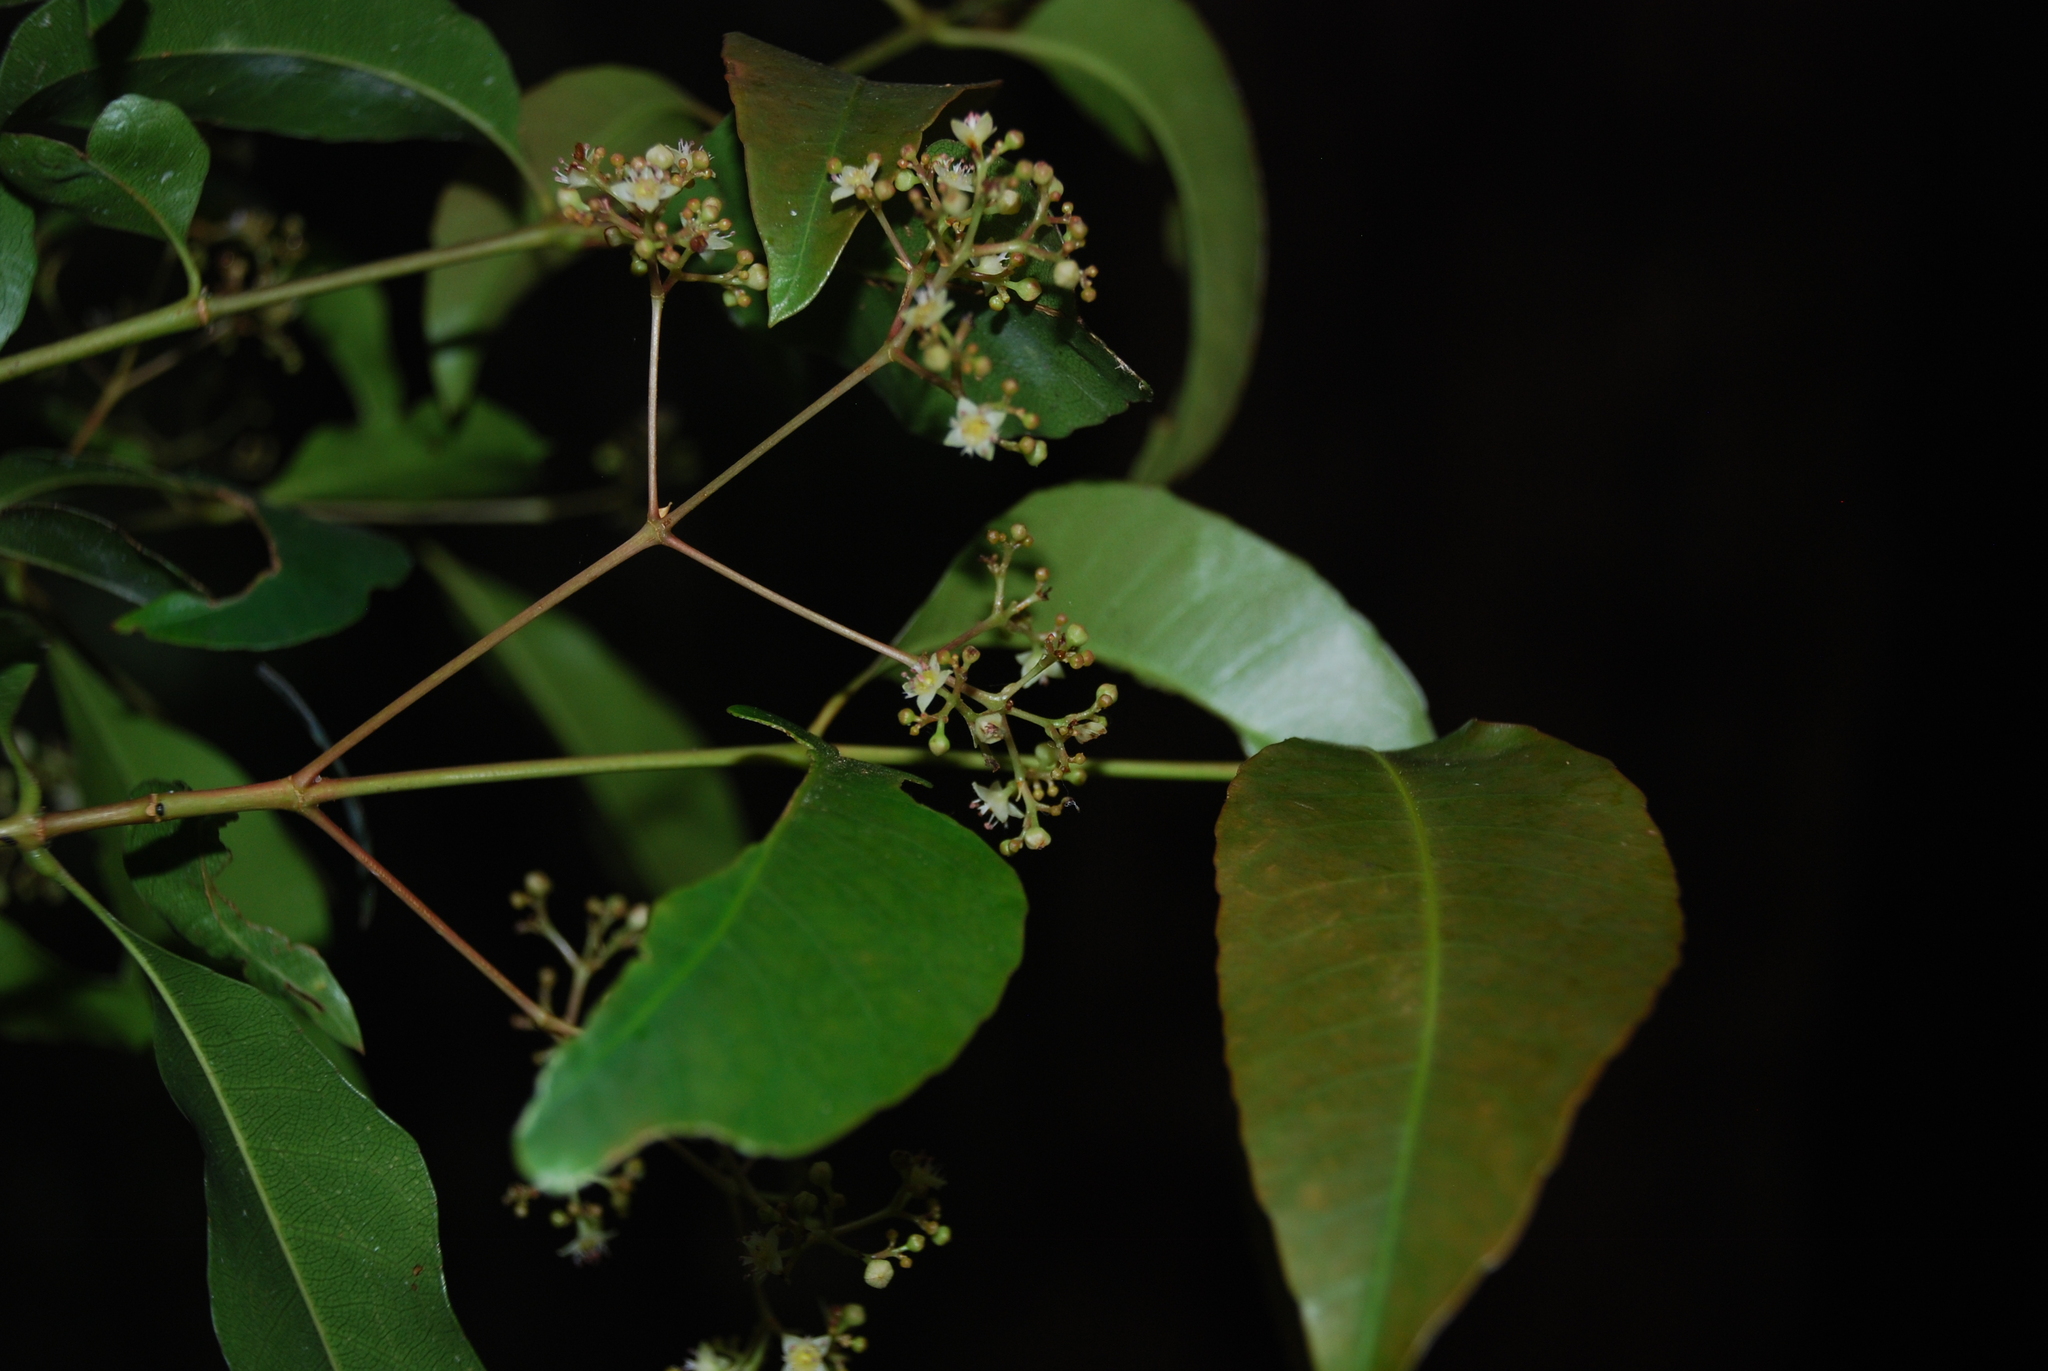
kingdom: Plantae
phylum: Tracheophyta
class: Magnoliopsida
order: Oxalidales
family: Cunoniaceae
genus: Schizomeria
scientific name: Schizomeria ovata
